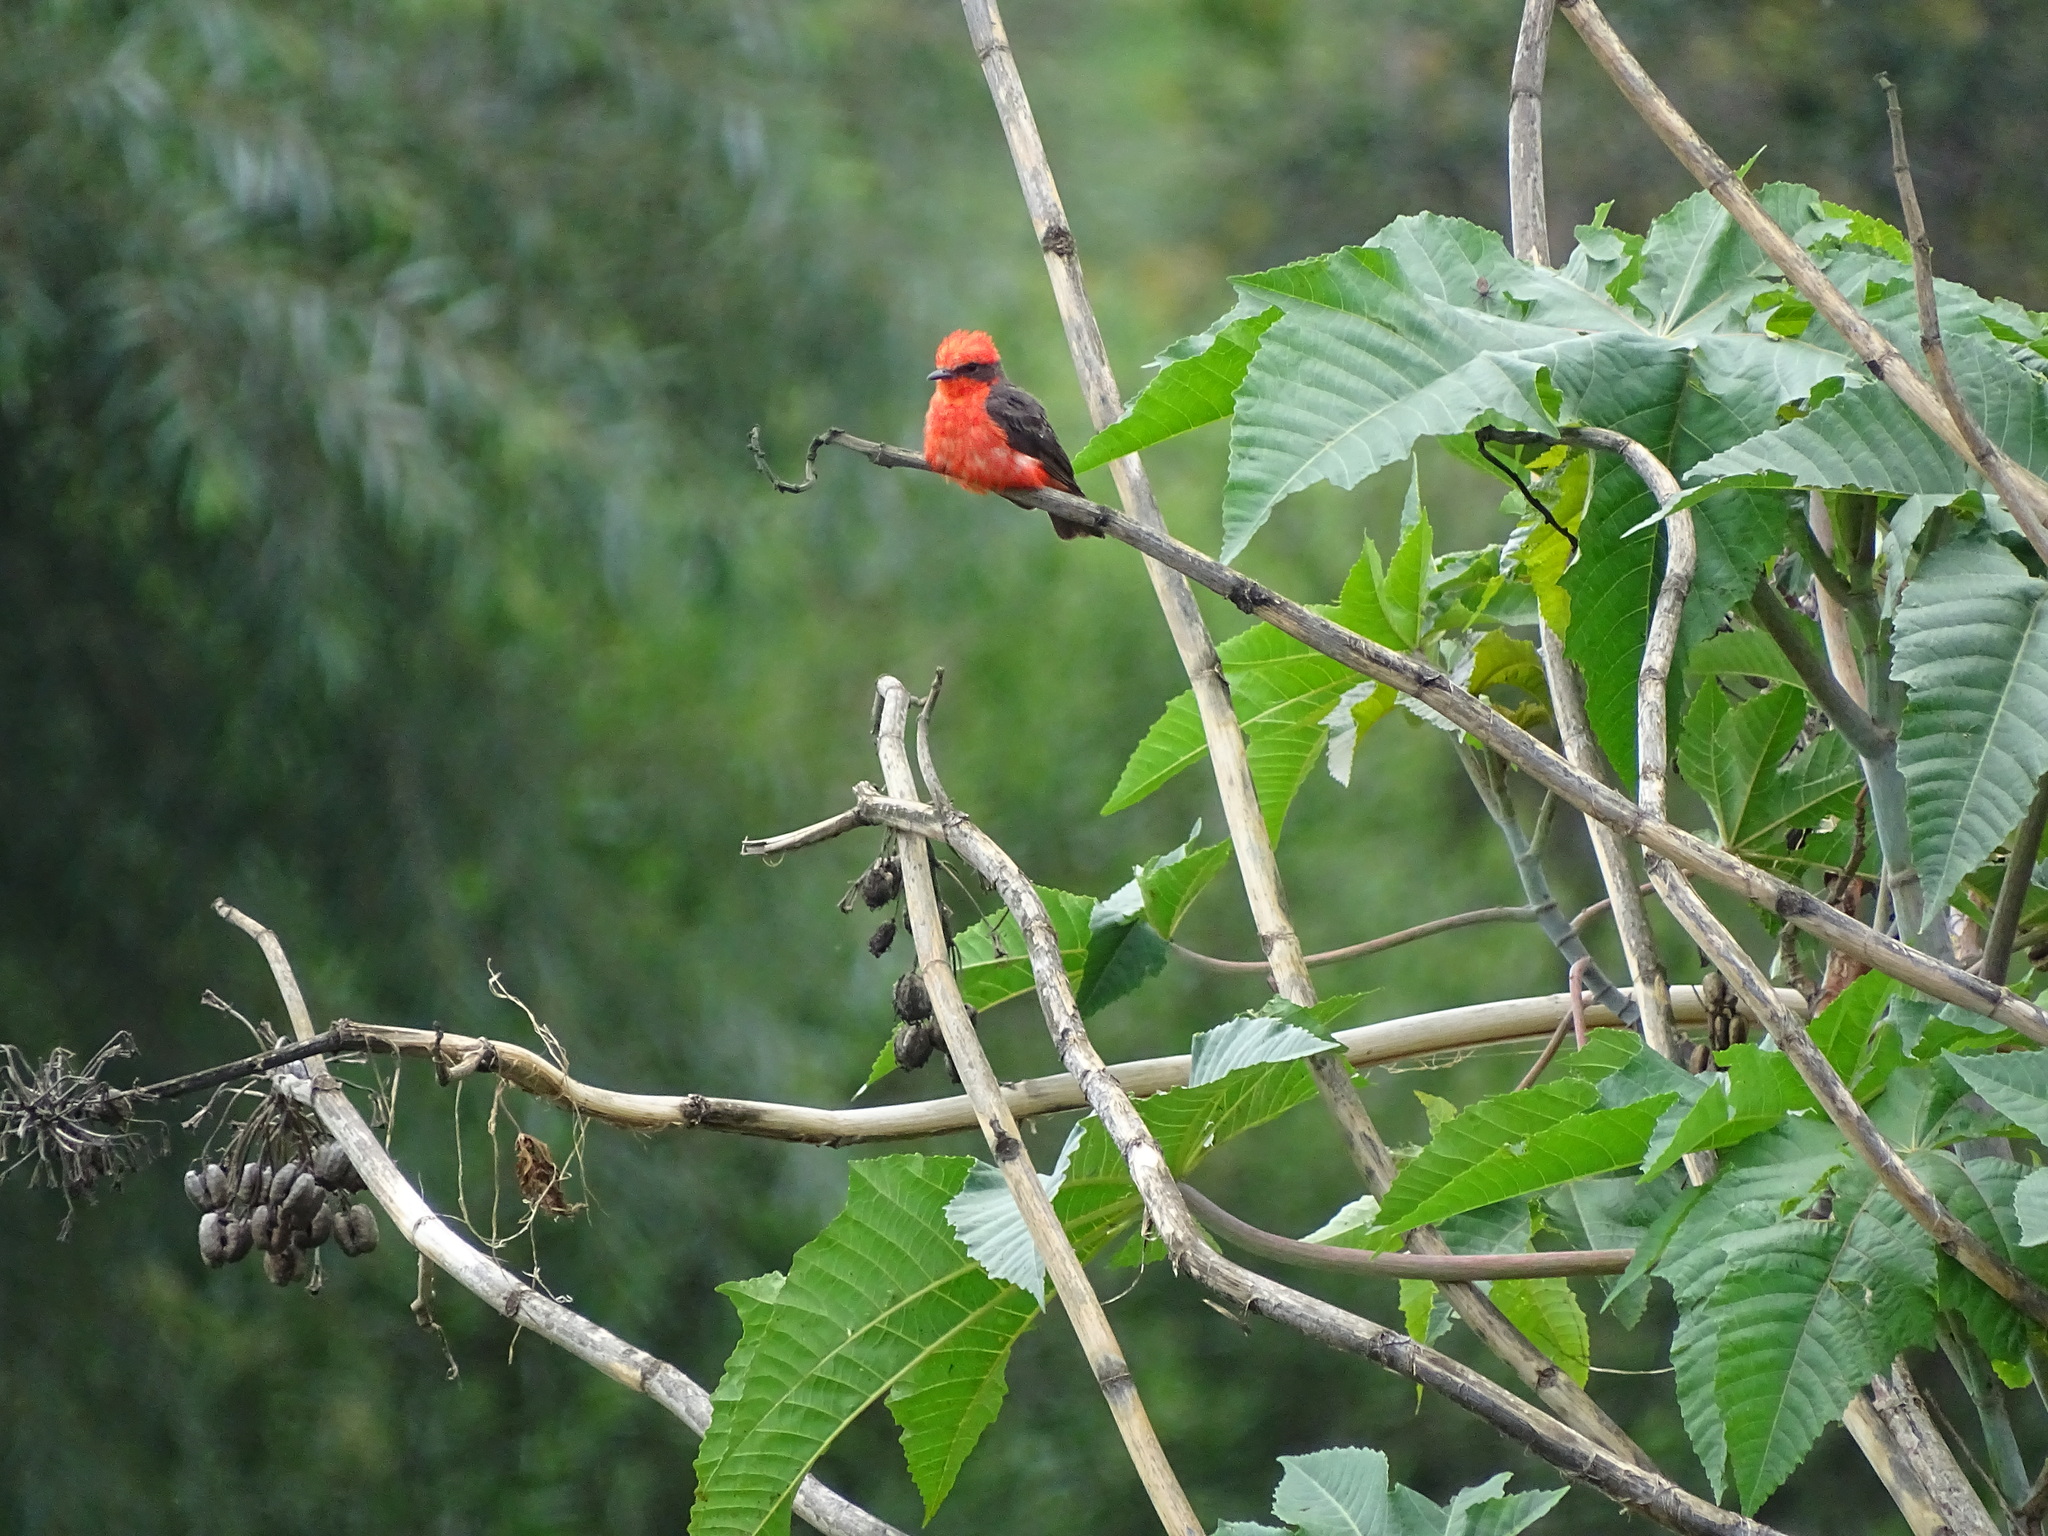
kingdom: Animalia
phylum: Chordata
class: Aves
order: Passeriformes
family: Tyrannidae
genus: Pyrocephalus
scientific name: Pyrocephalus rubinus
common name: Vermilion flycatcher
